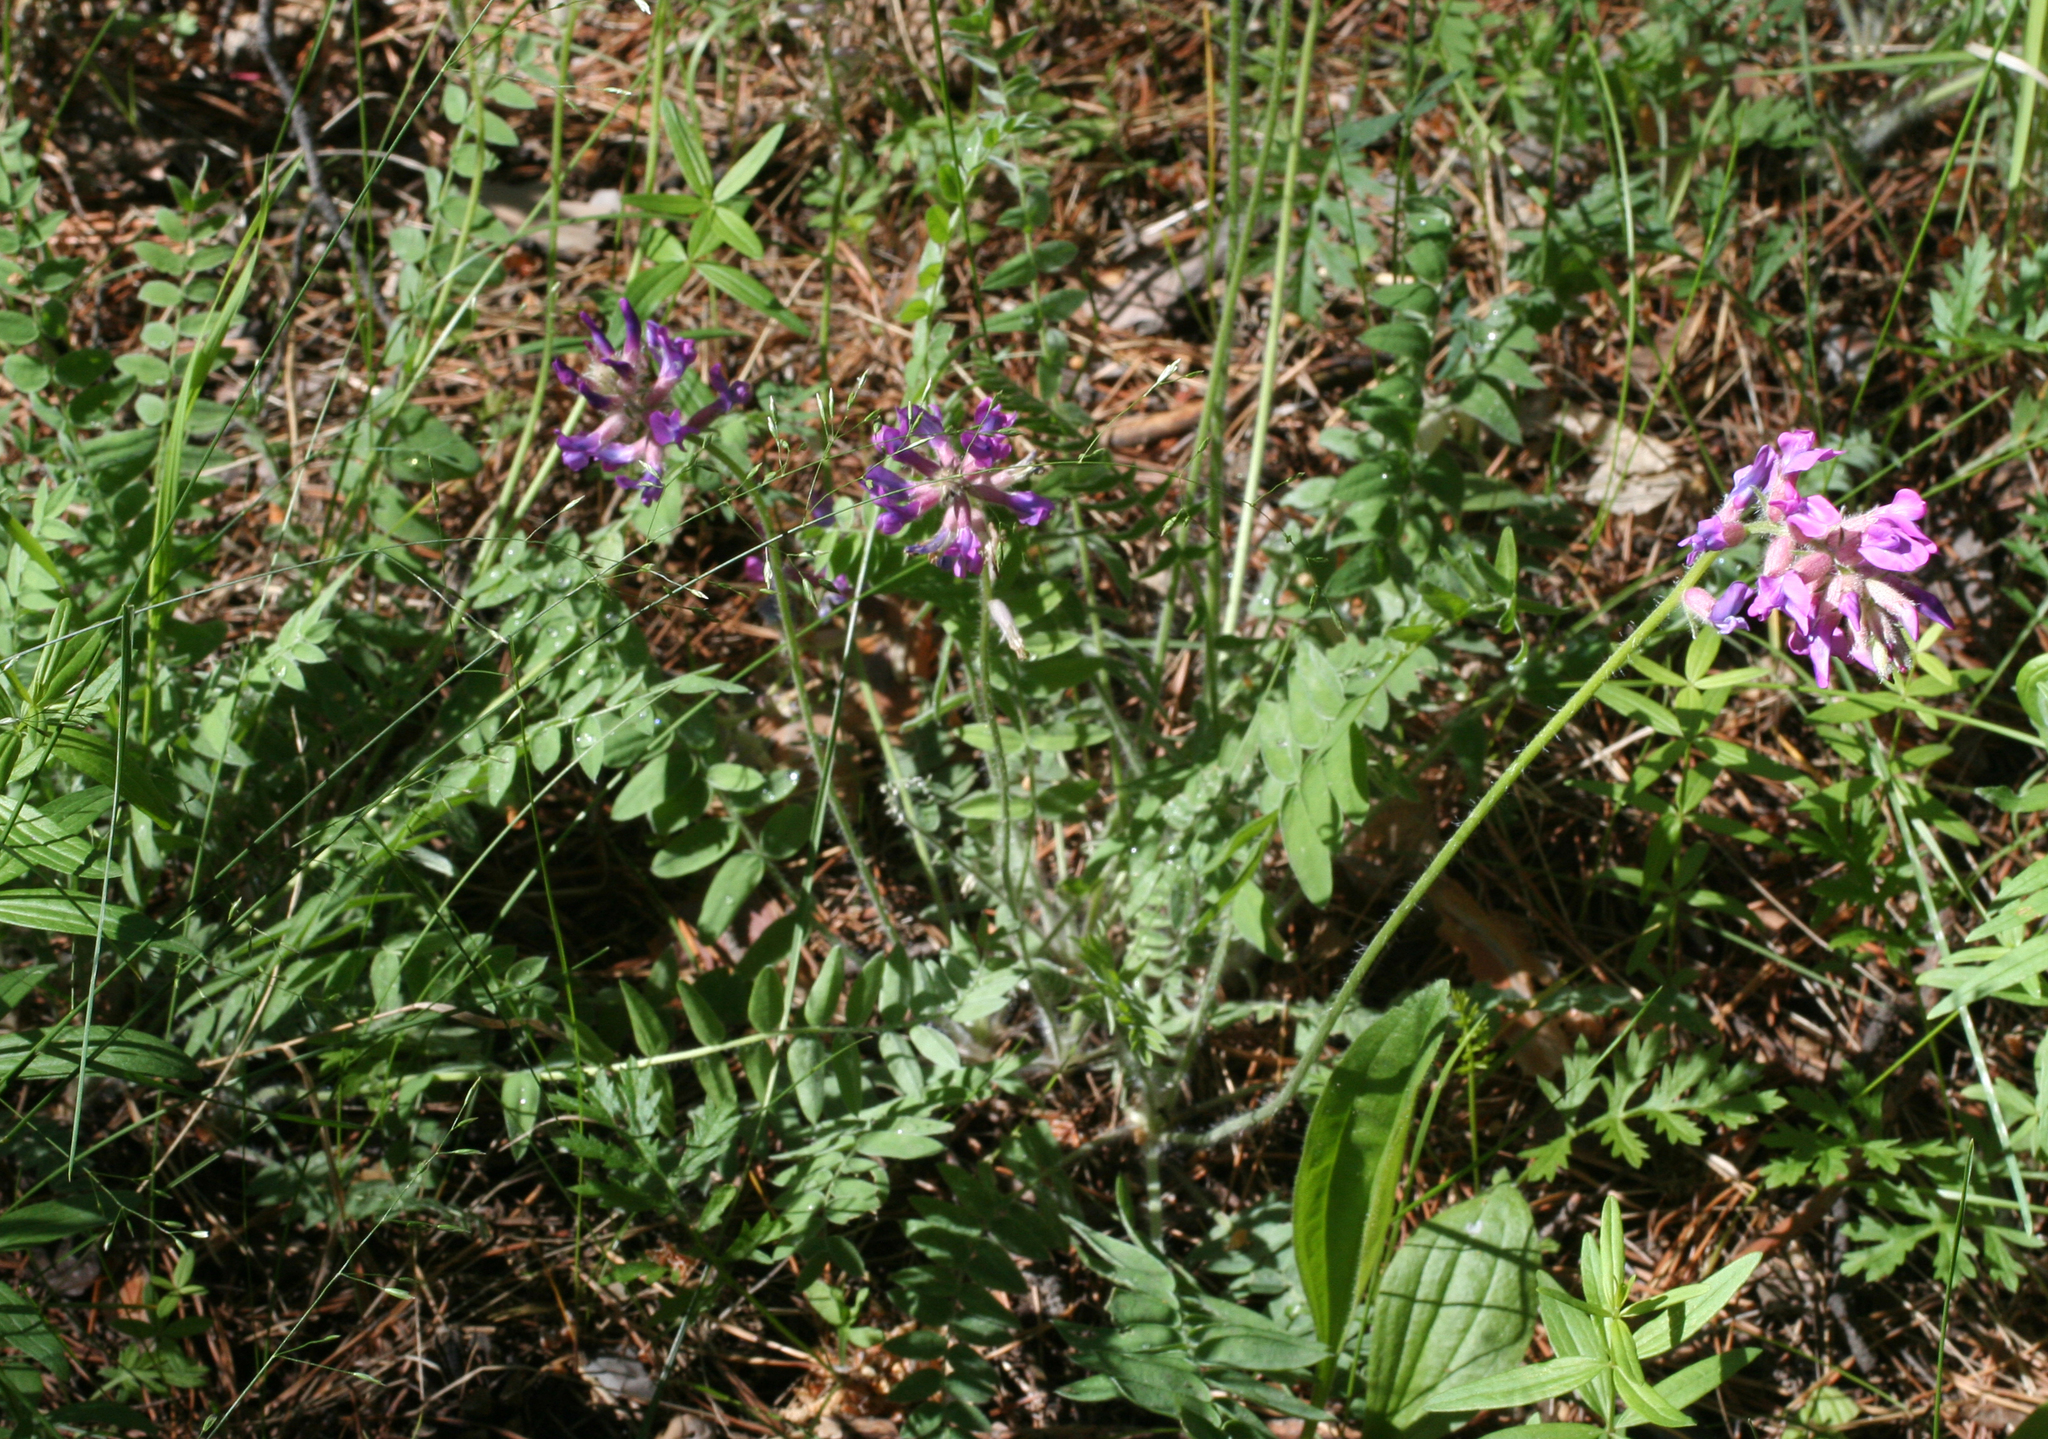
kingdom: Plantae
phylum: Tracheophyta
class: Magnoliopsida
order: Fabales
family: Fabaceae
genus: Oxytropis
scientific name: Oxytropis campanulata
